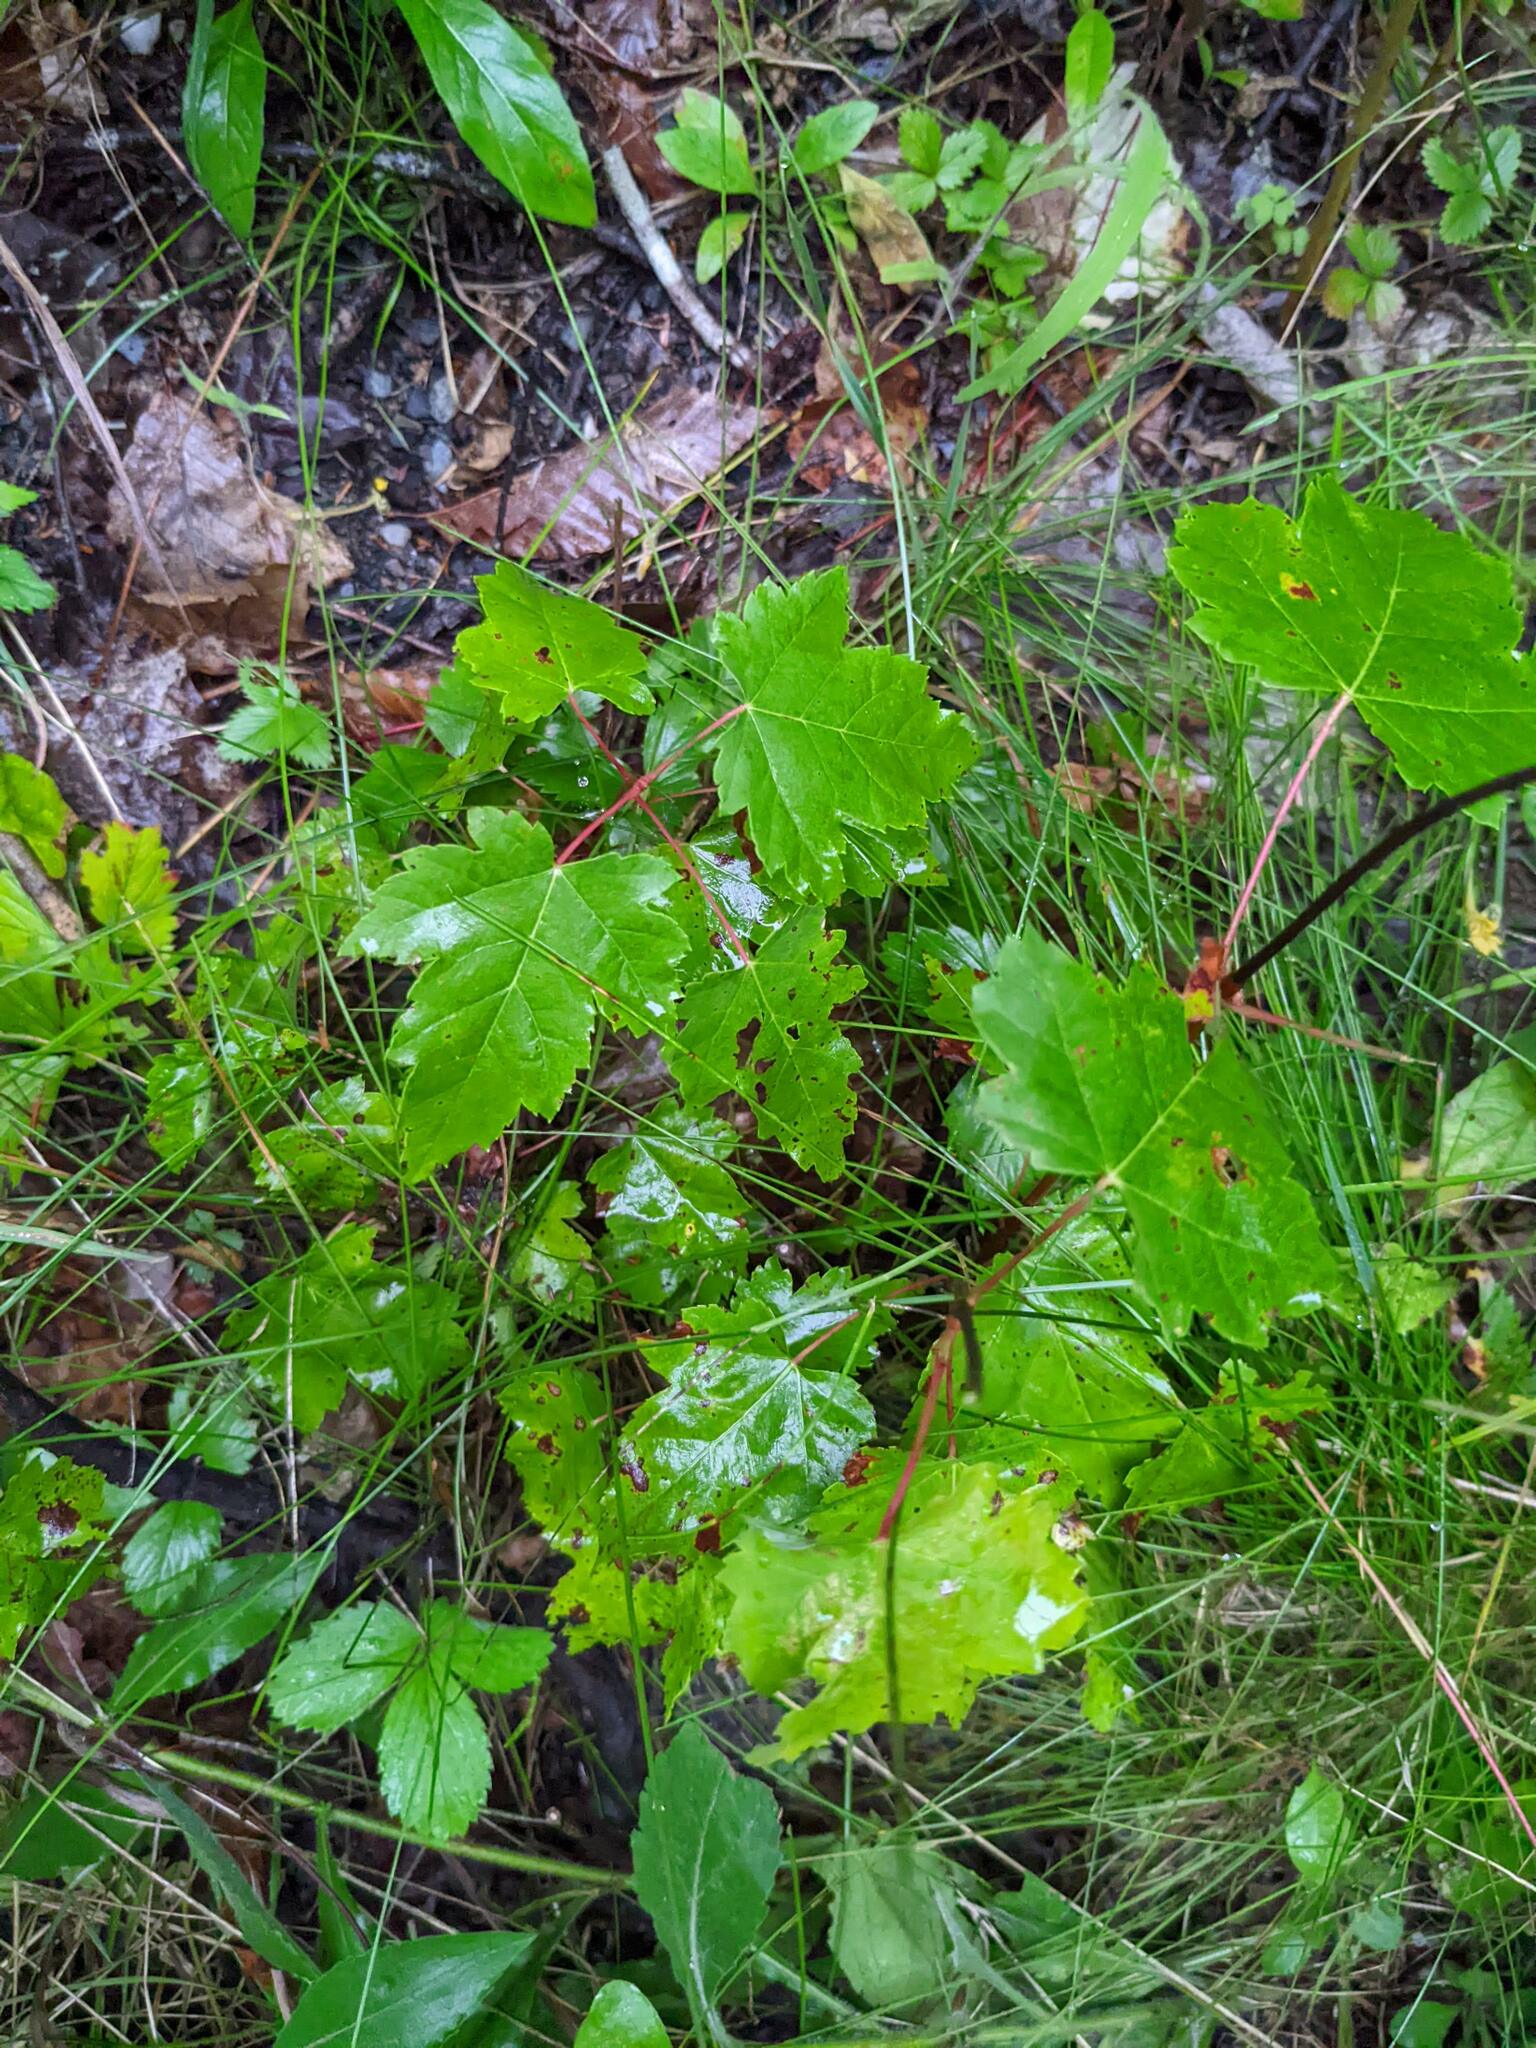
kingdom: Plantae
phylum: Tracheophyta
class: Magnoliopsida
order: Sapindales
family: Sapindaceae
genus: Acer
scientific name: Acer rubrum
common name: Red maple
